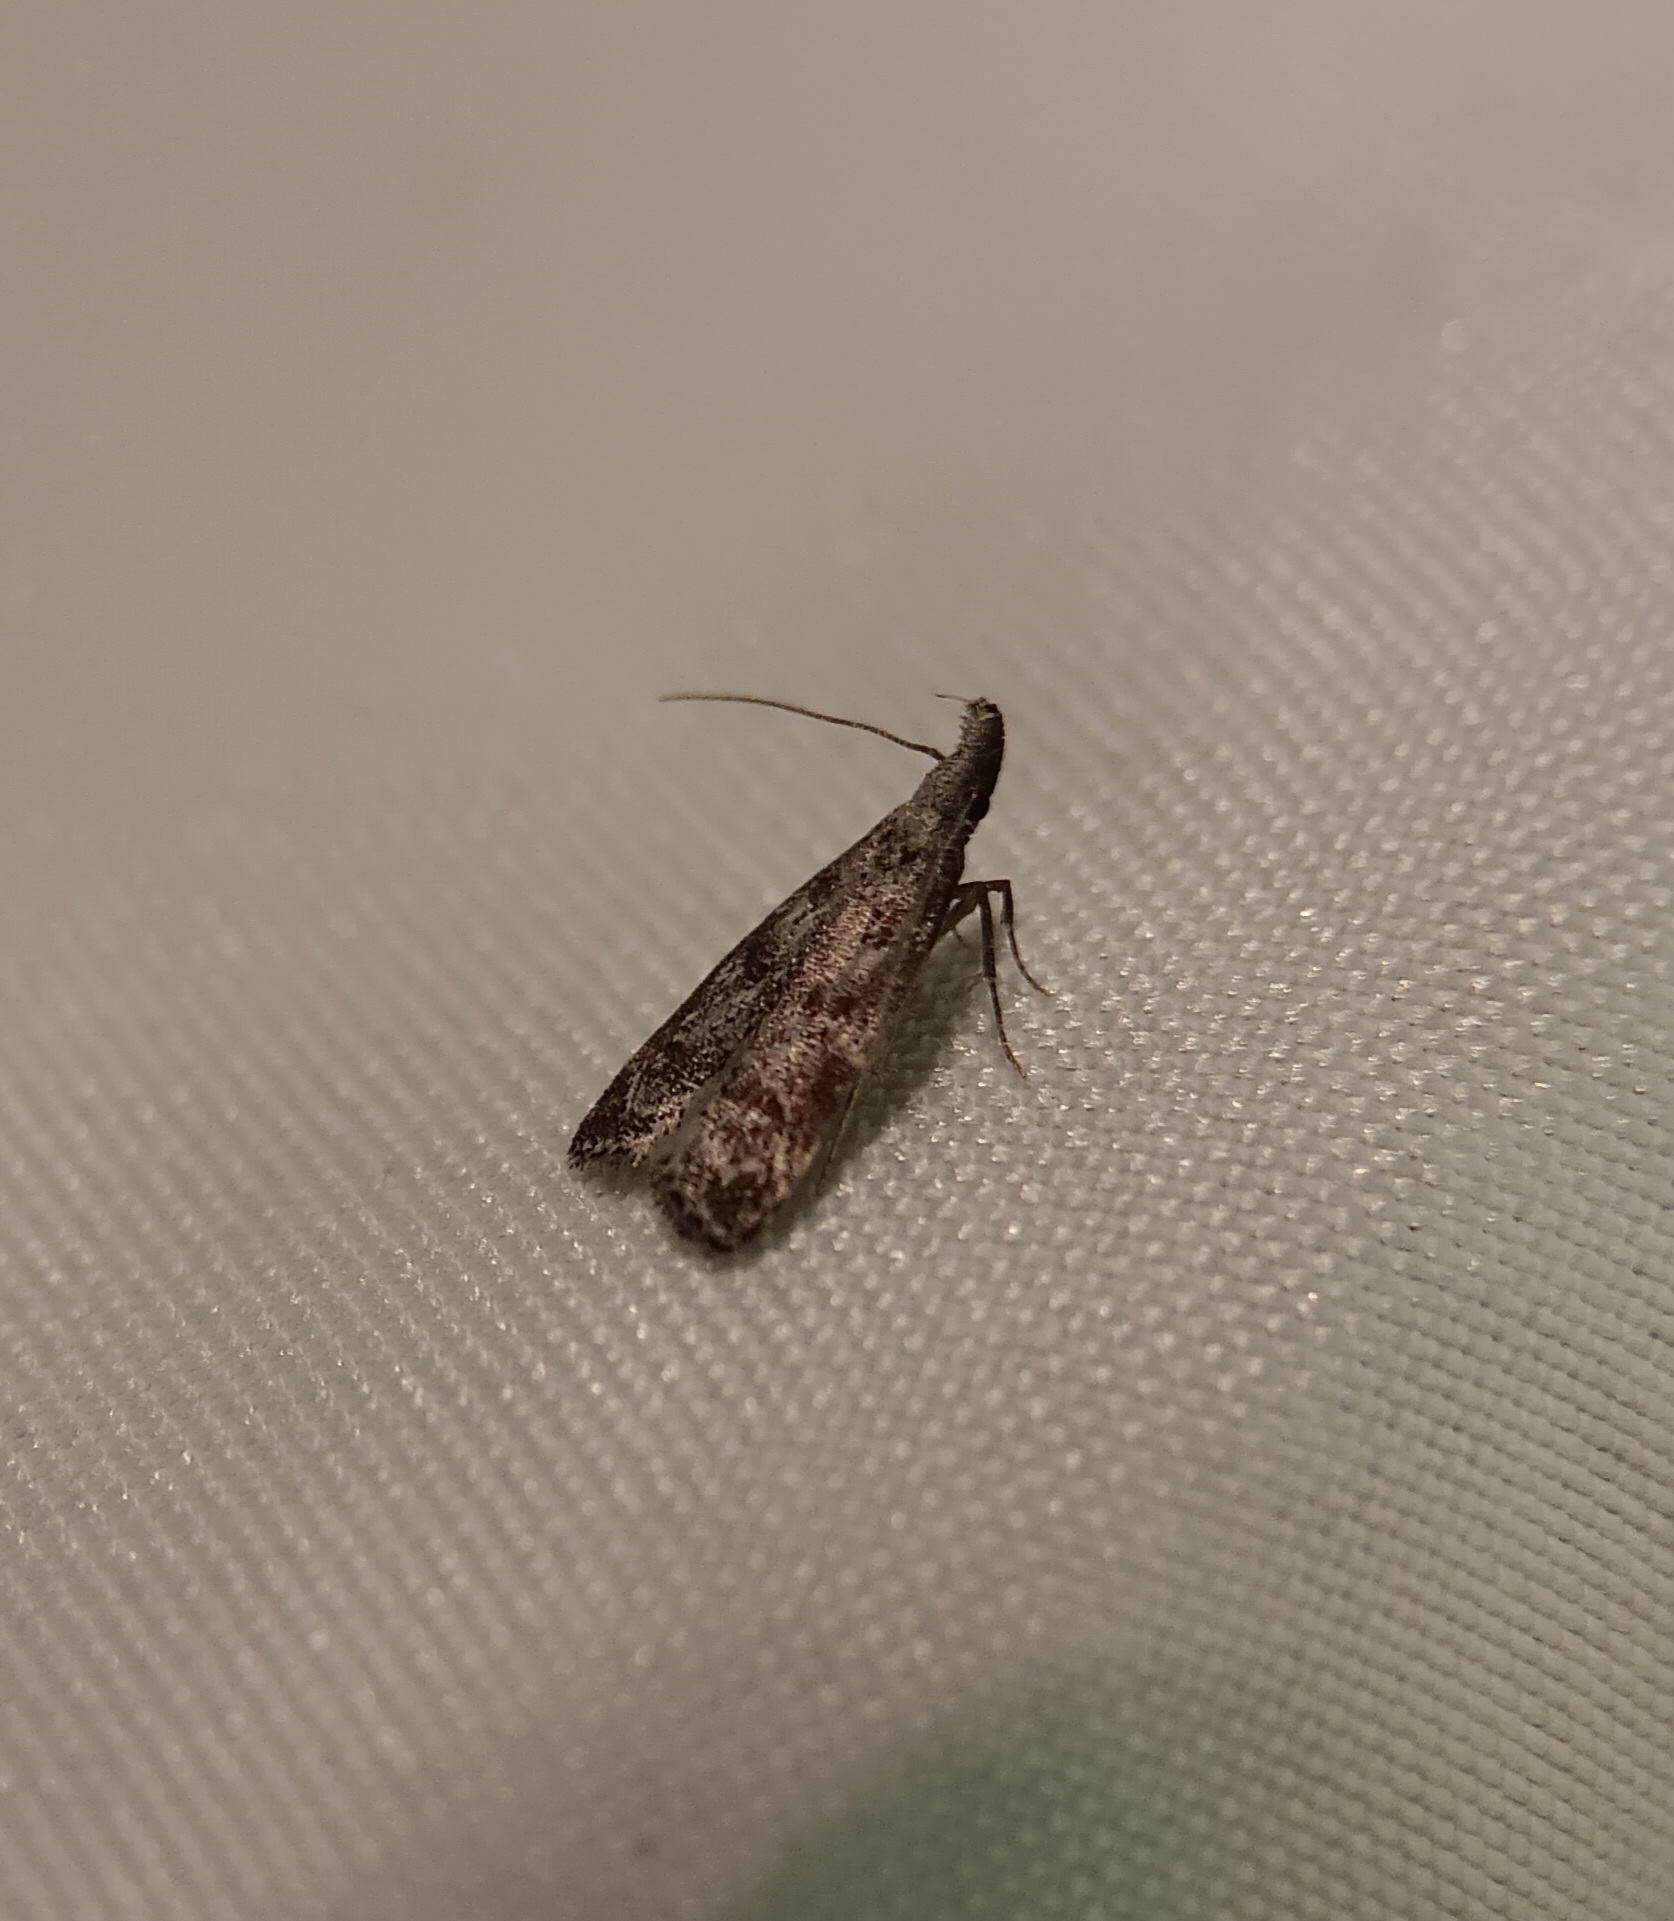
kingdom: Animalia
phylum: Arthropoda
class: Insecta
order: Lepidoptera
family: Gelechiidae
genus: Dichomeris
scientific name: Dichomeris inversella
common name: Inverse dichomeris moth
